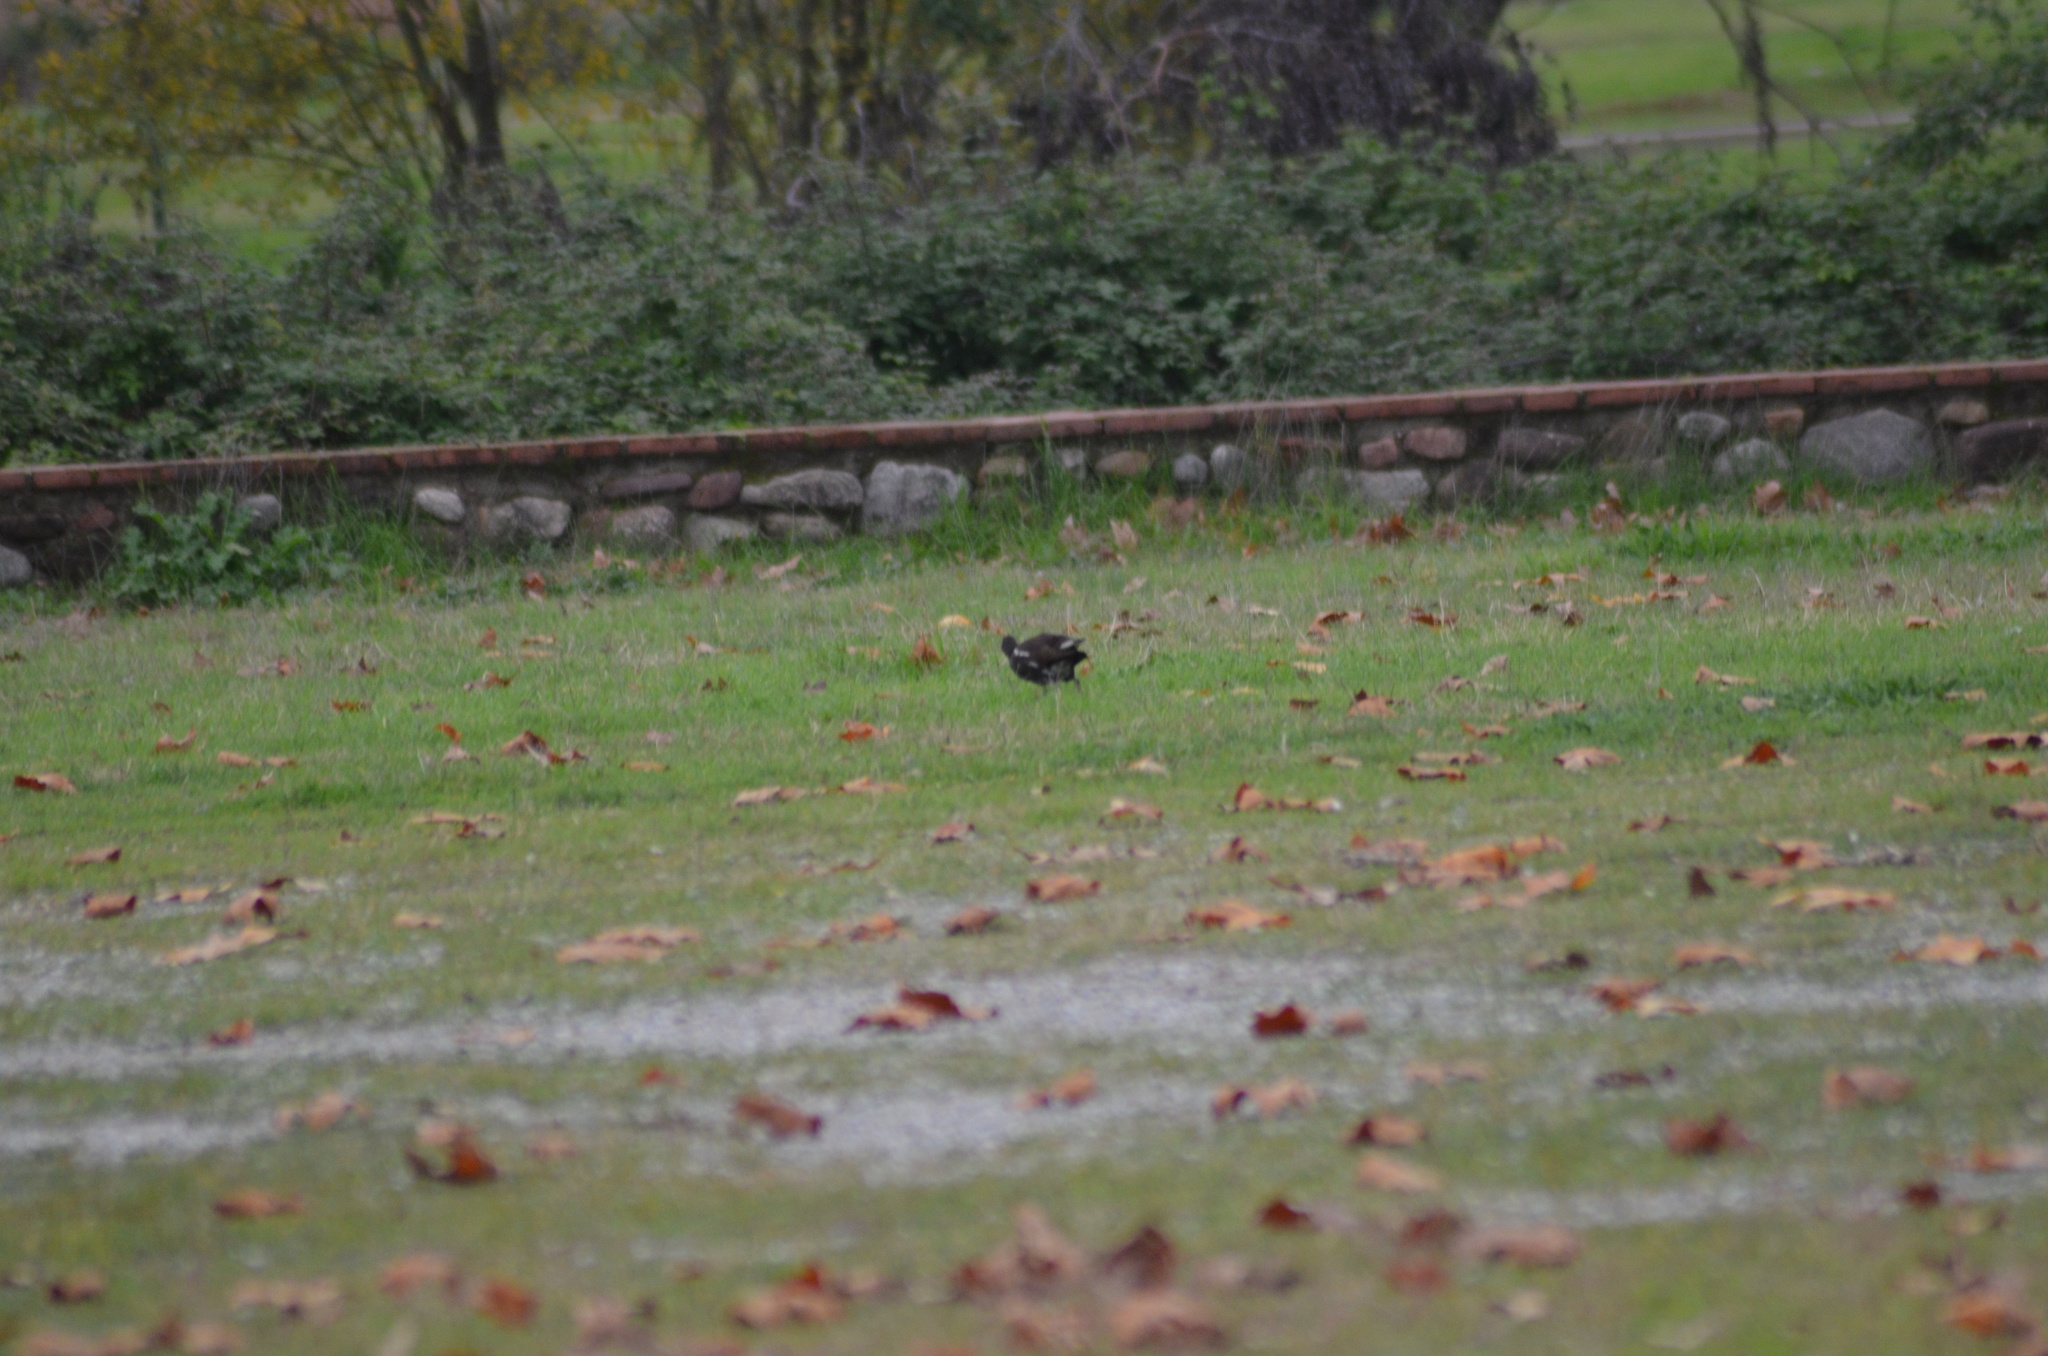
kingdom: Animalia
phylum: Chordata
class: Aves
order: Gruiformes
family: Rallidae
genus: Gallinula
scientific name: Gallinula chloropus
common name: Common moorhen
